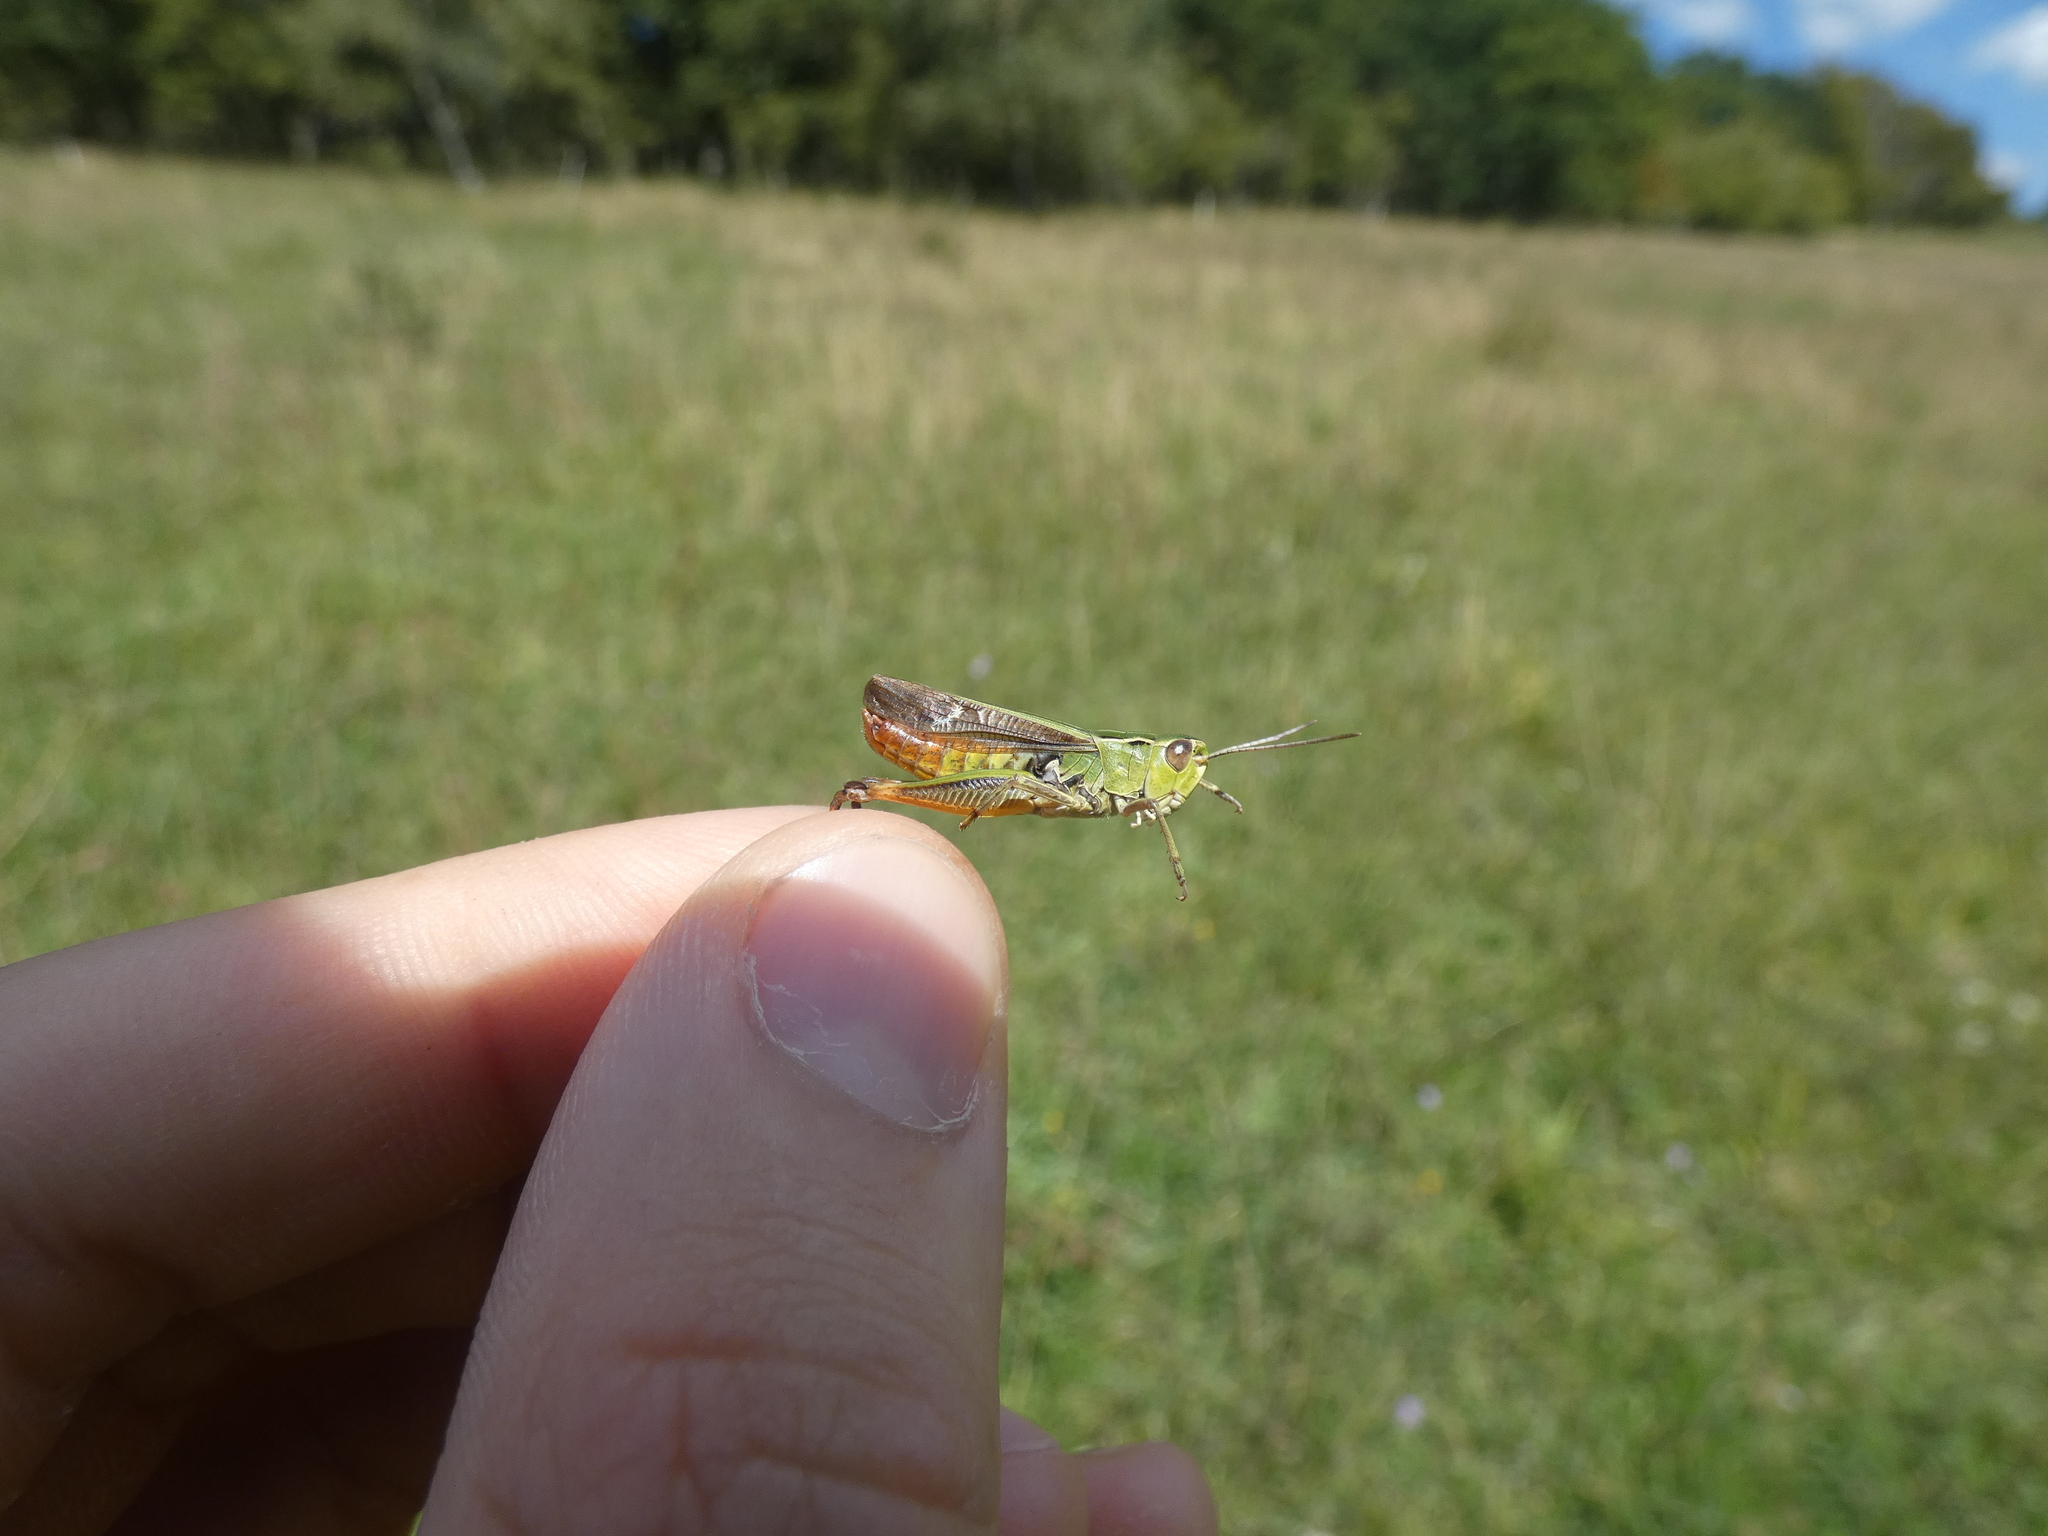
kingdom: Animalia
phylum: Arthropoda
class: Insecta
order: Orthoptera
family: Acrididae
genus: Stenobothrus
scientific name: Stenobothrus lineatus
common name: Stripe-winged grasshopper
